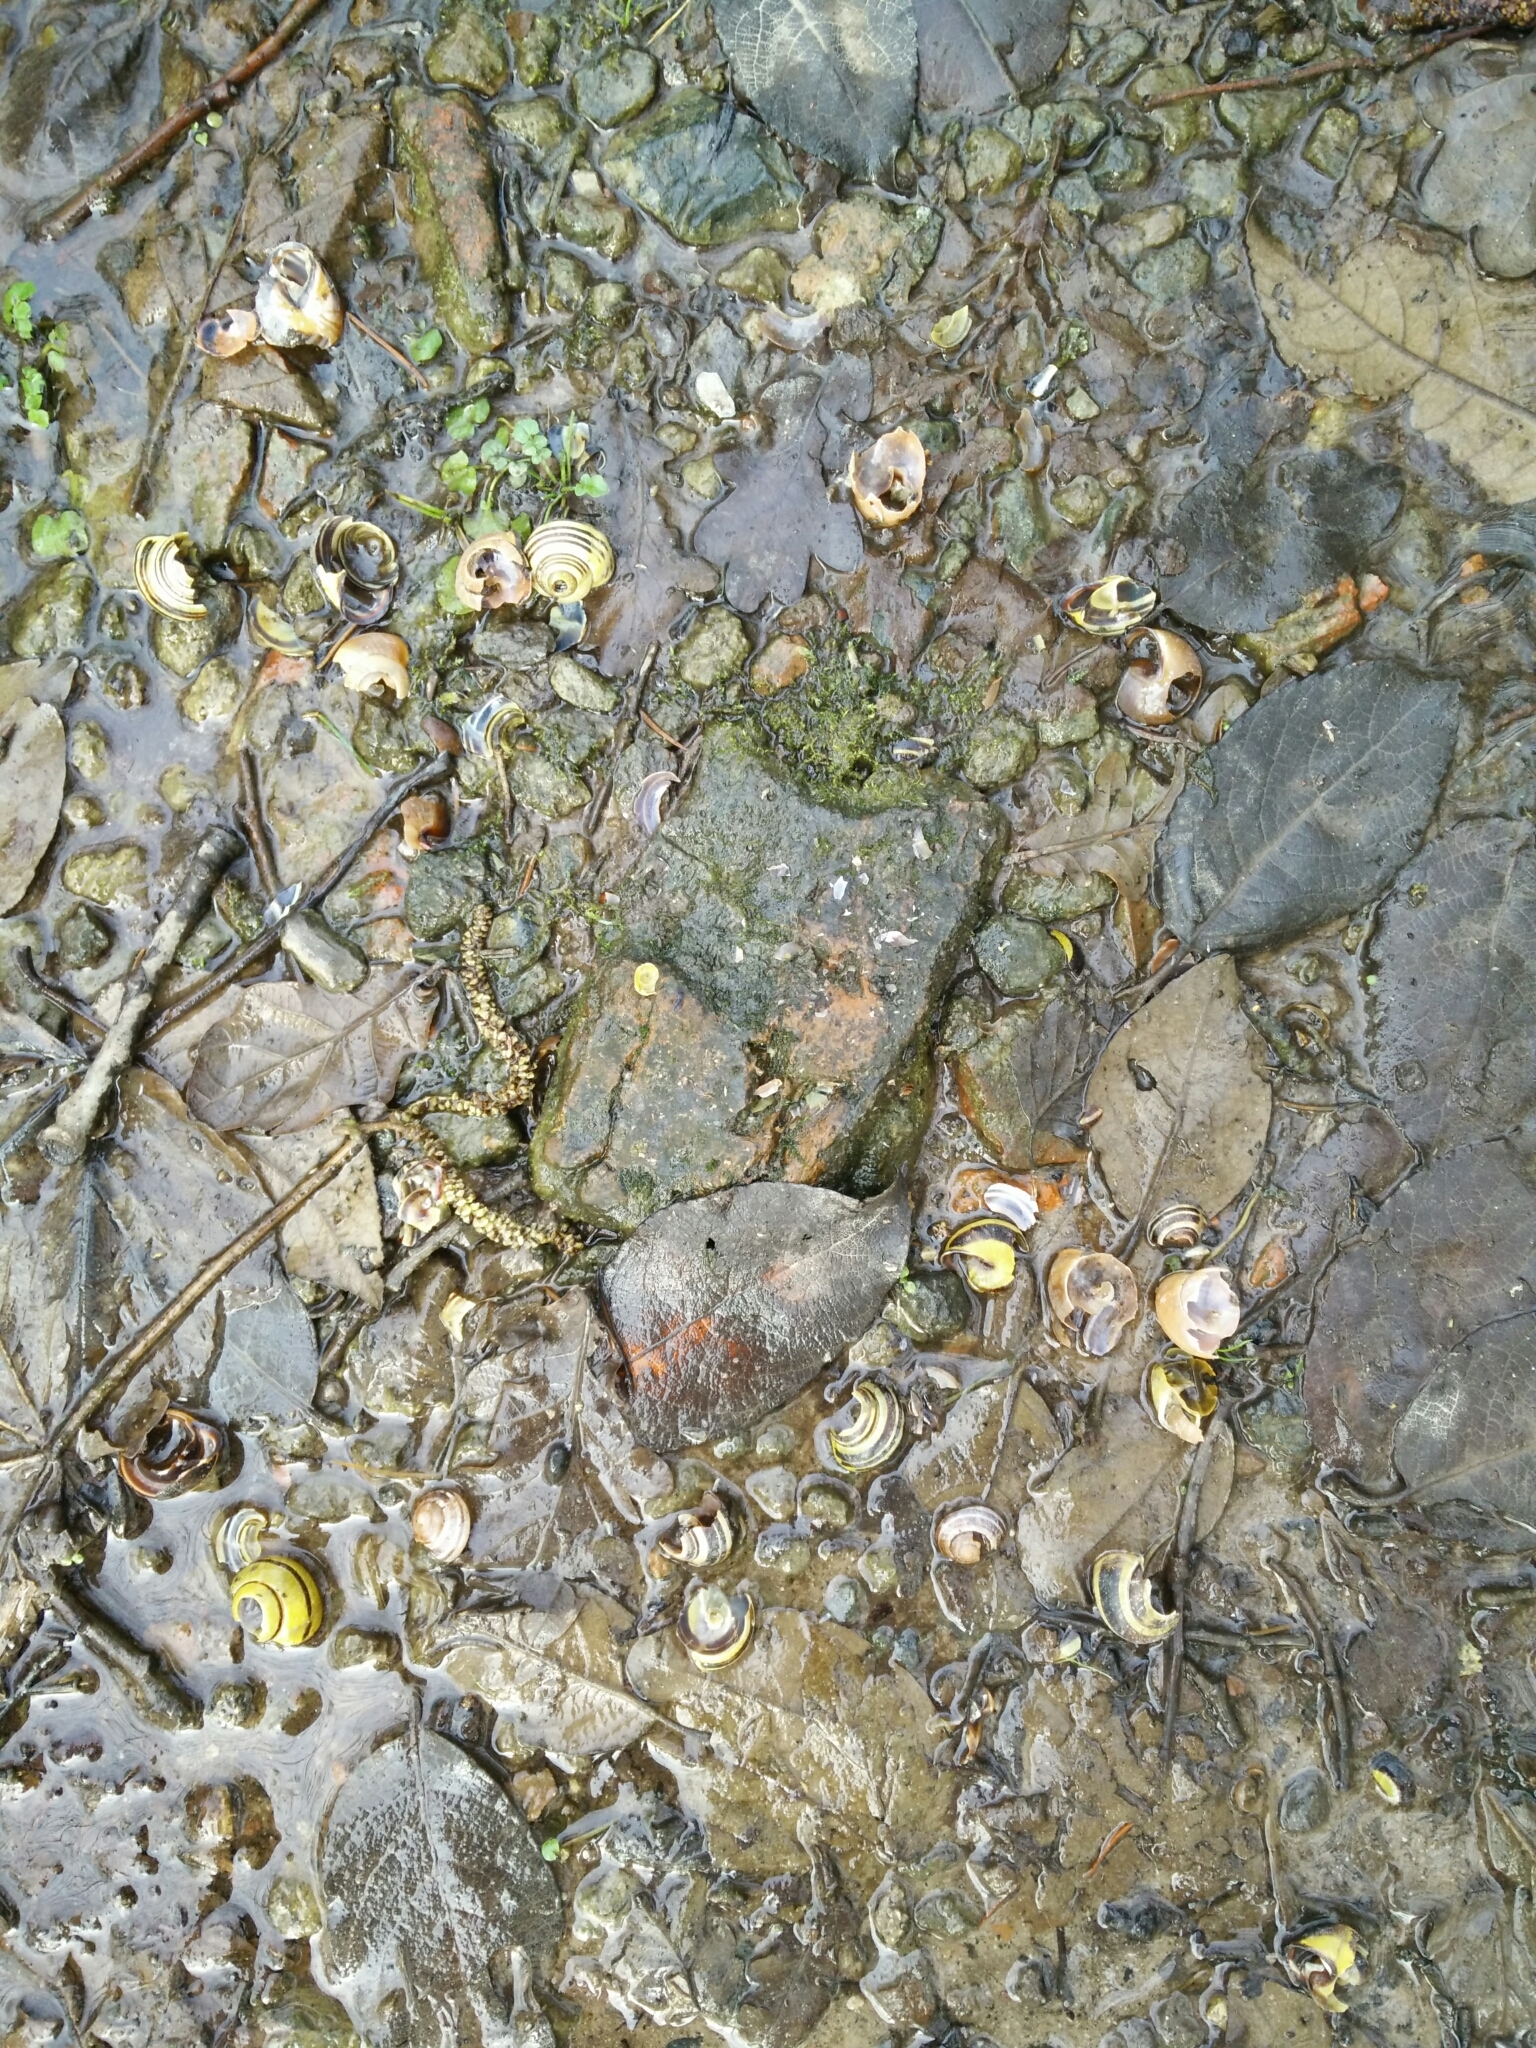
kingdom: Animalia
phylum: Chordata
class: Aves
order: Passeriformes
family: Turdidae
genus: Turdus
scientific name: Turdus philomelos
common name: Song thrush
